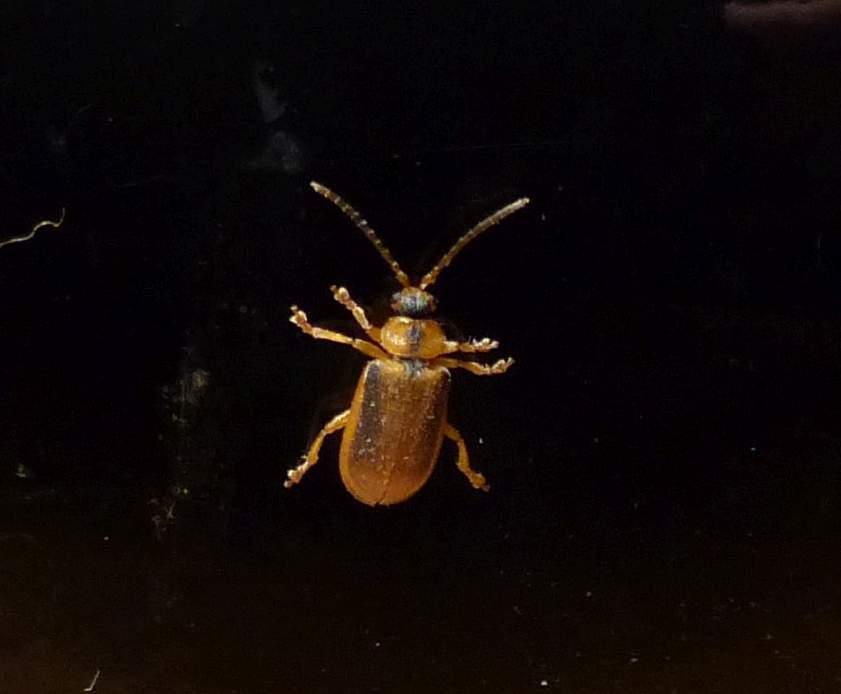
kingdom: Animalia
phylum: Arthropoda
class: Insecta
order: Coleoptera
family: Chrysomelidae
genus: Neogalerucella
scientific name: Neogalerucella calmariensis
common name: Black-margined loosestrife beetle
